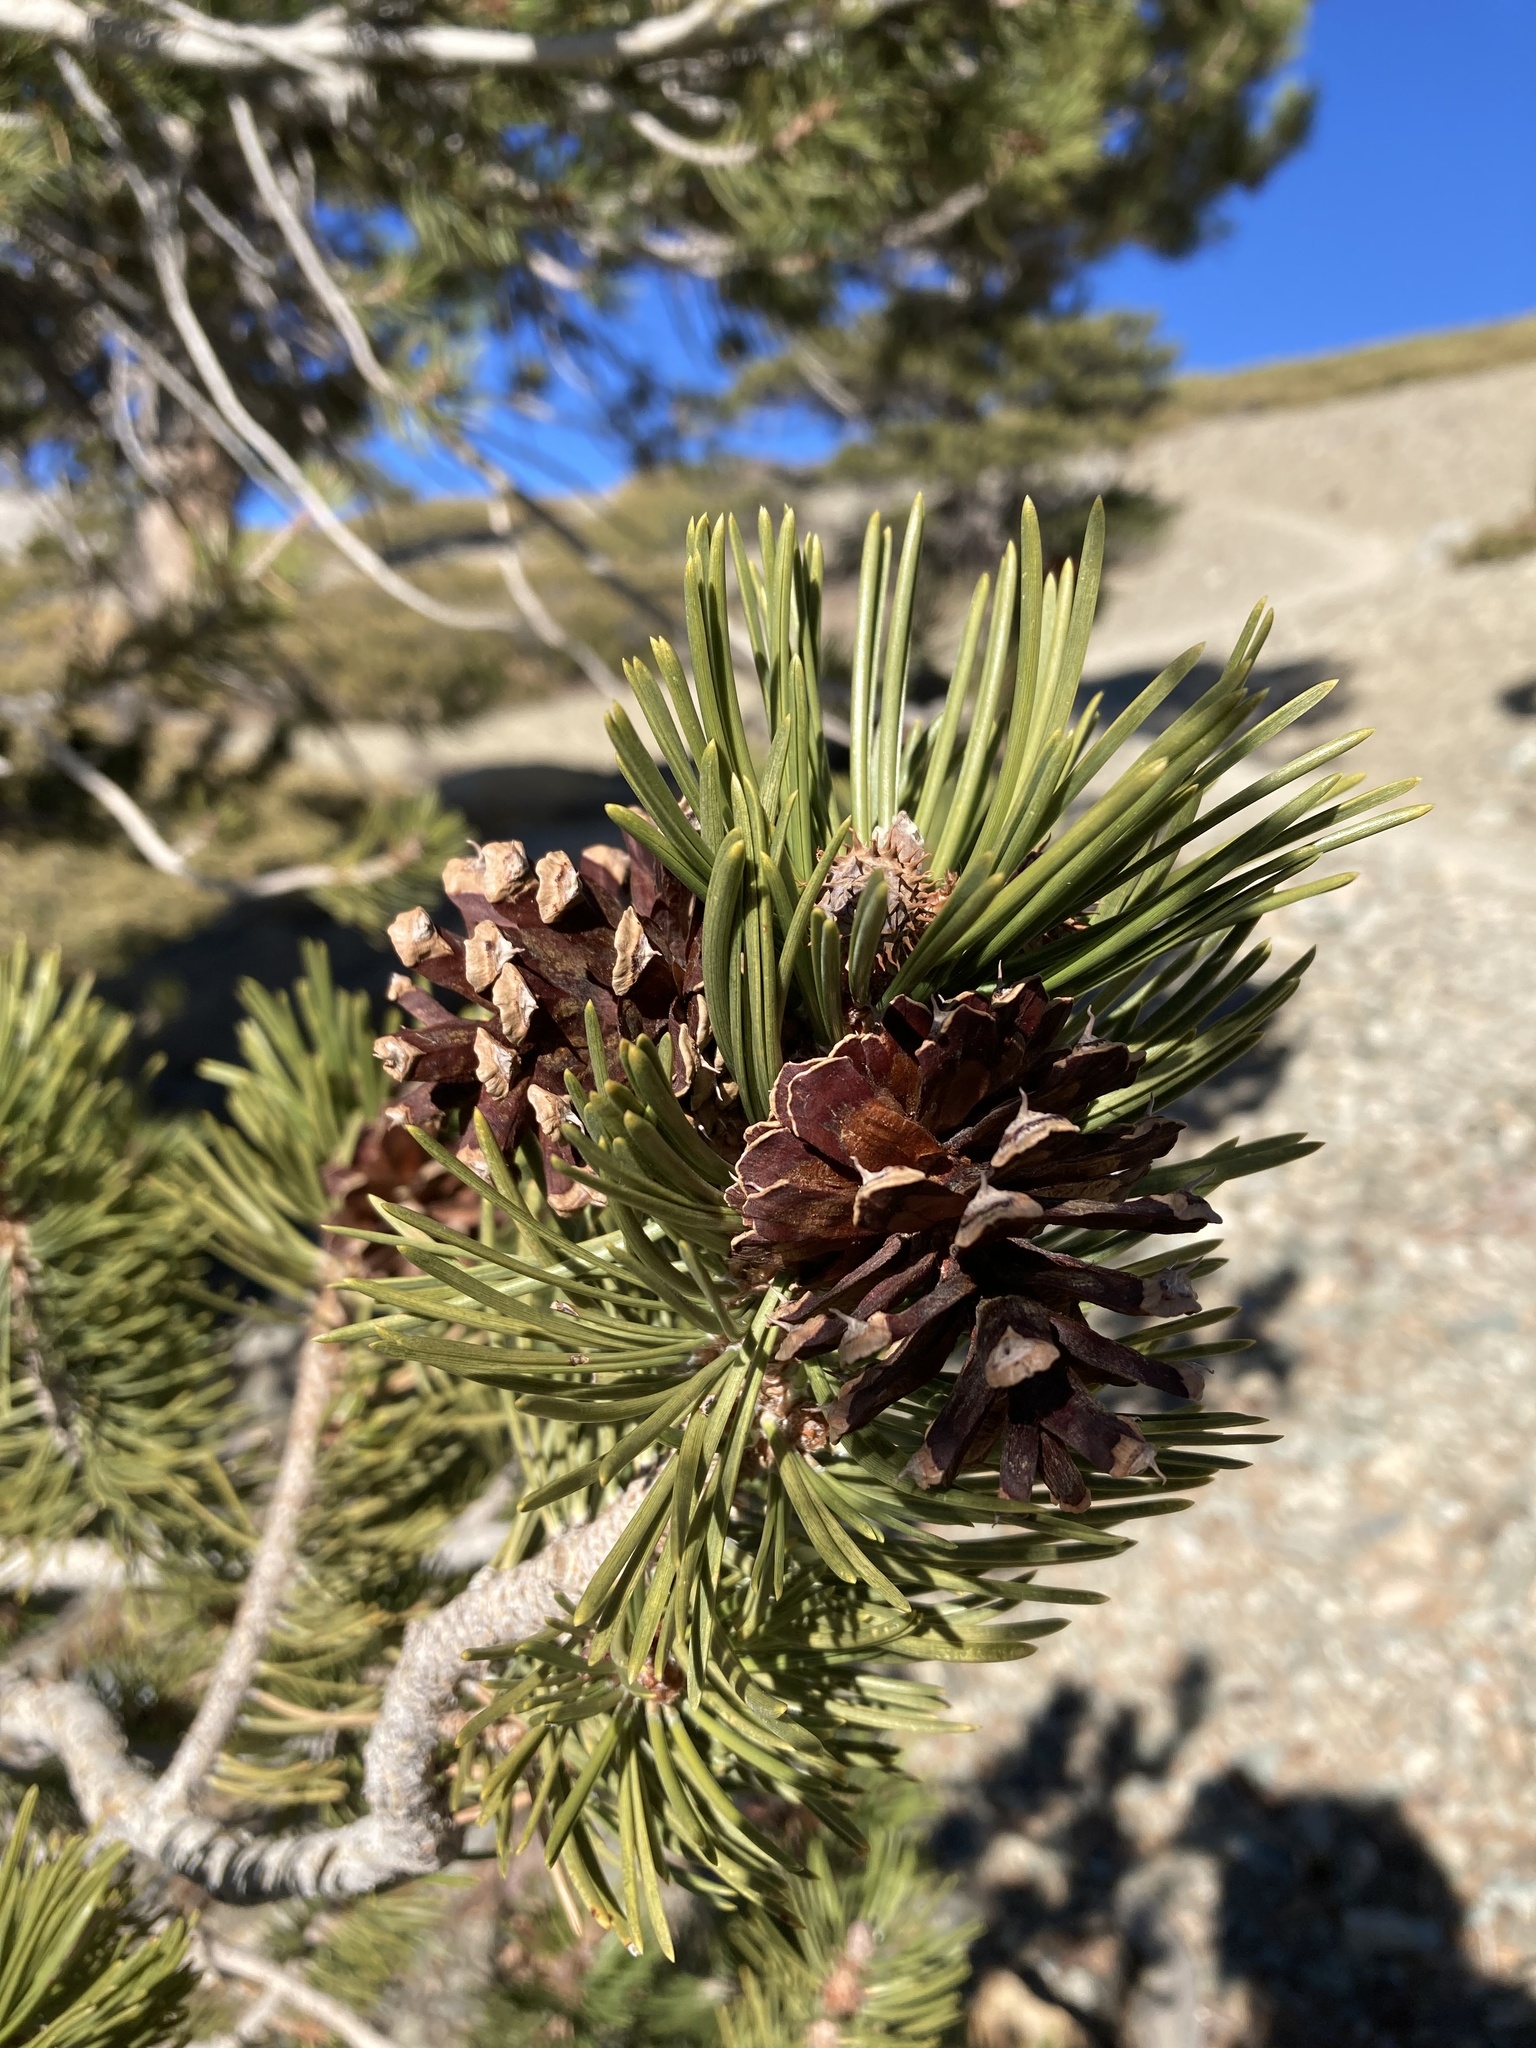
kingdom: Plantae
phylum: Tracheophyta
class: Pinopsida
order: Pinales
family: Pinaceae
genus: Pinus
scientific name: Pinus contorta
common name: Lodgepole pine
